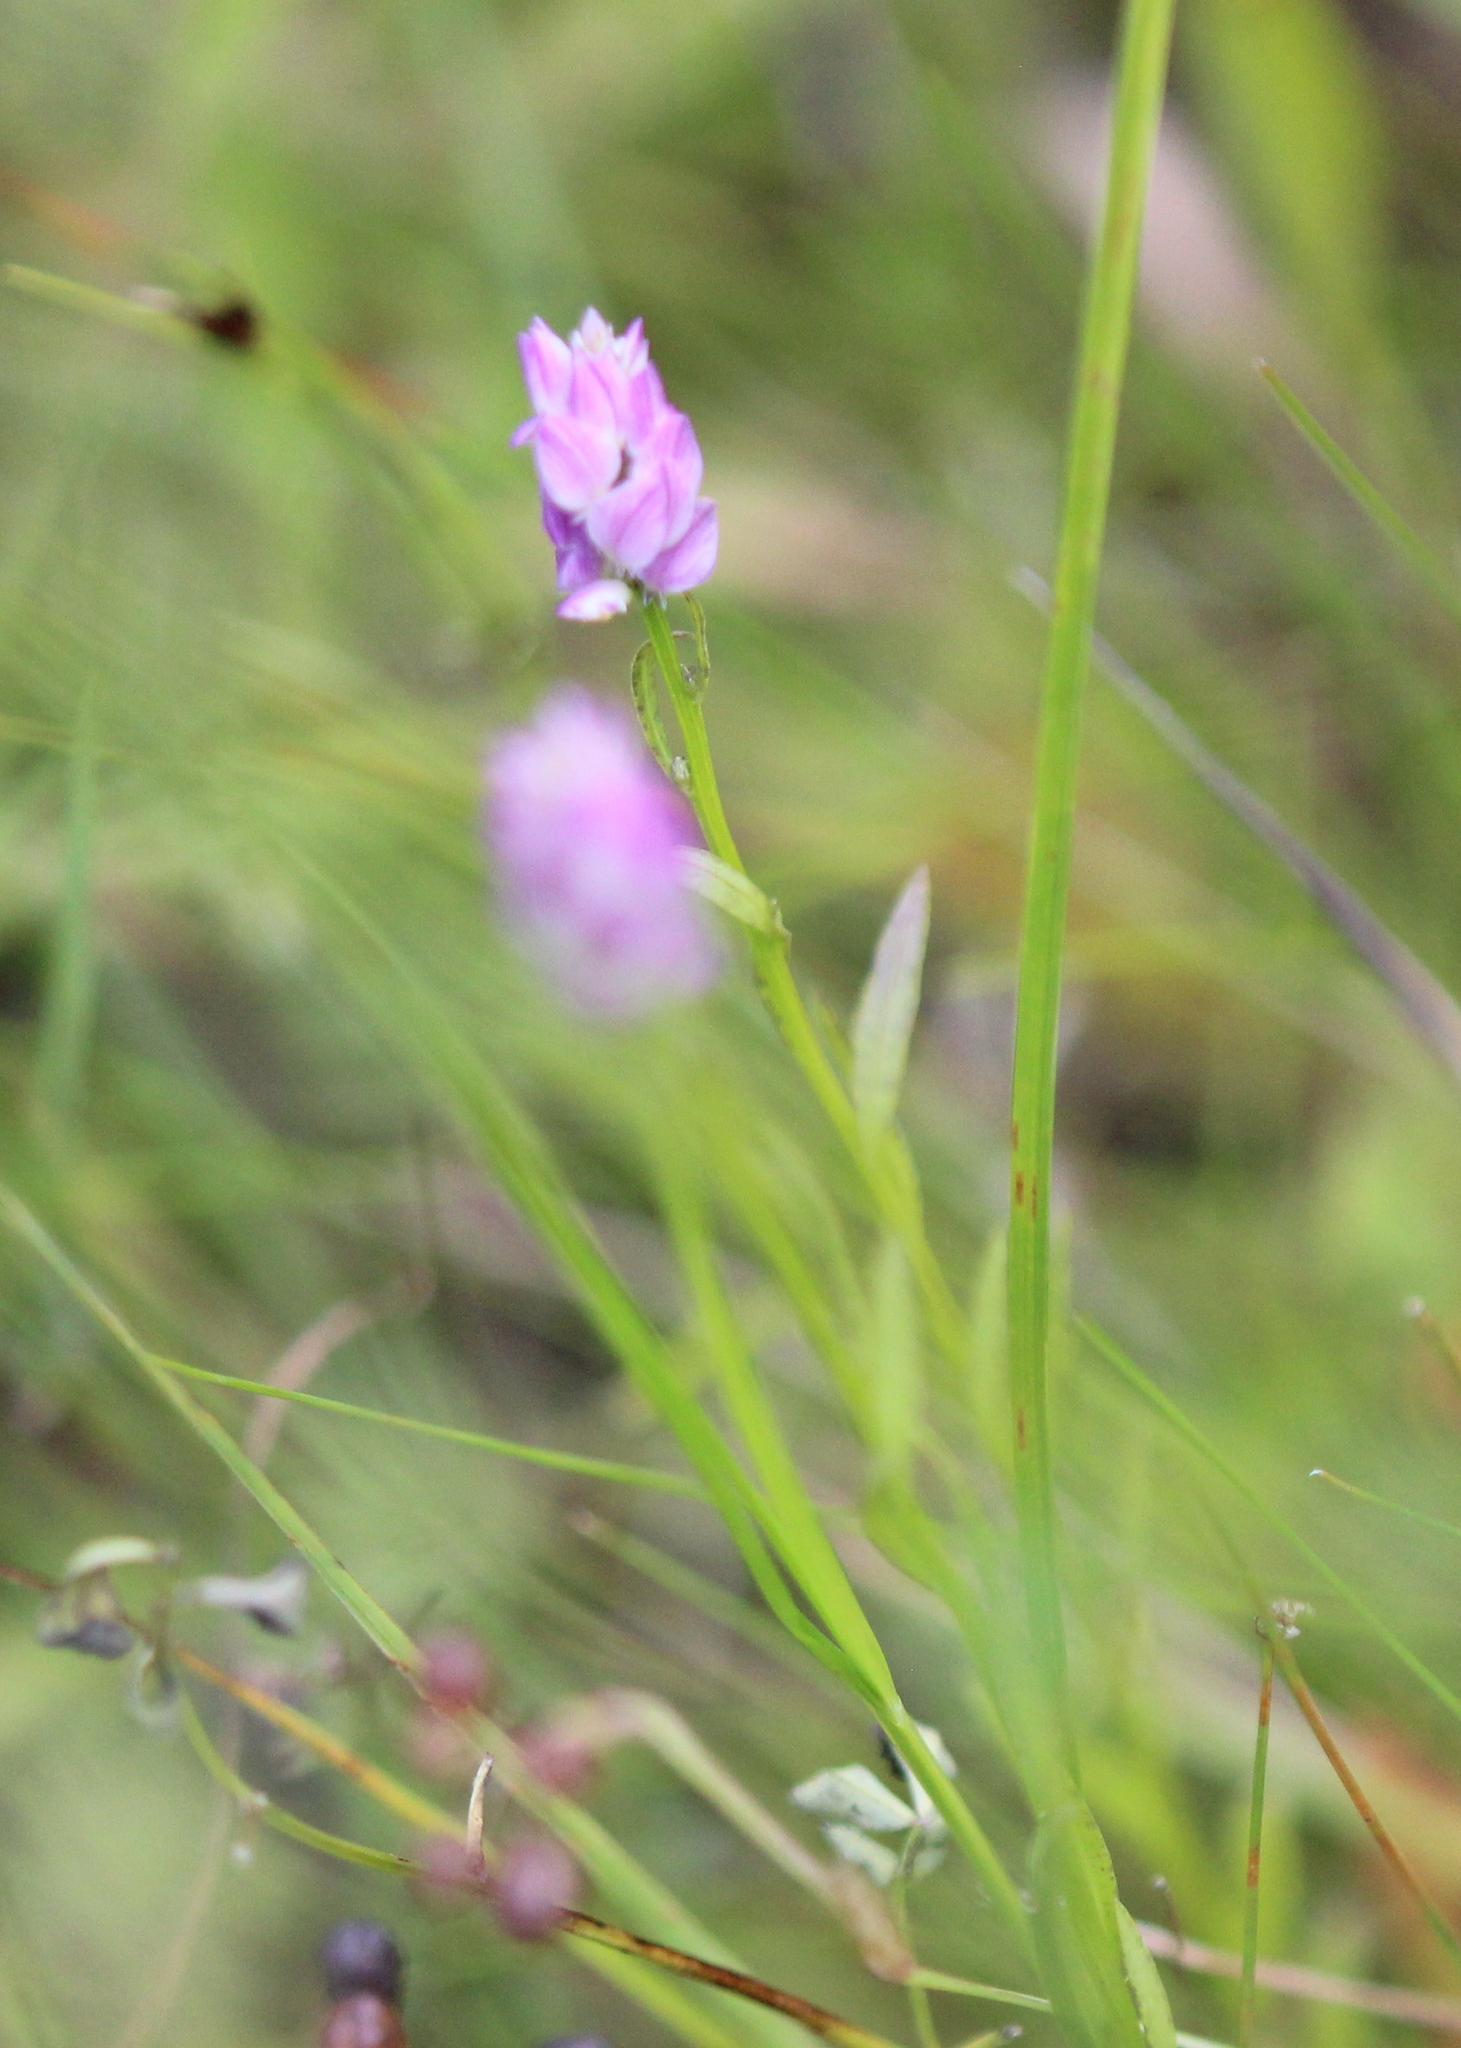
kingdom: Plantae
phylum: Tracheophyta
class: Magnoliopsida
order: Fabales
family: Polygalaceae
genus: Polygala
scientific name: Polygala sanguinea
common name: Blood milkwort
